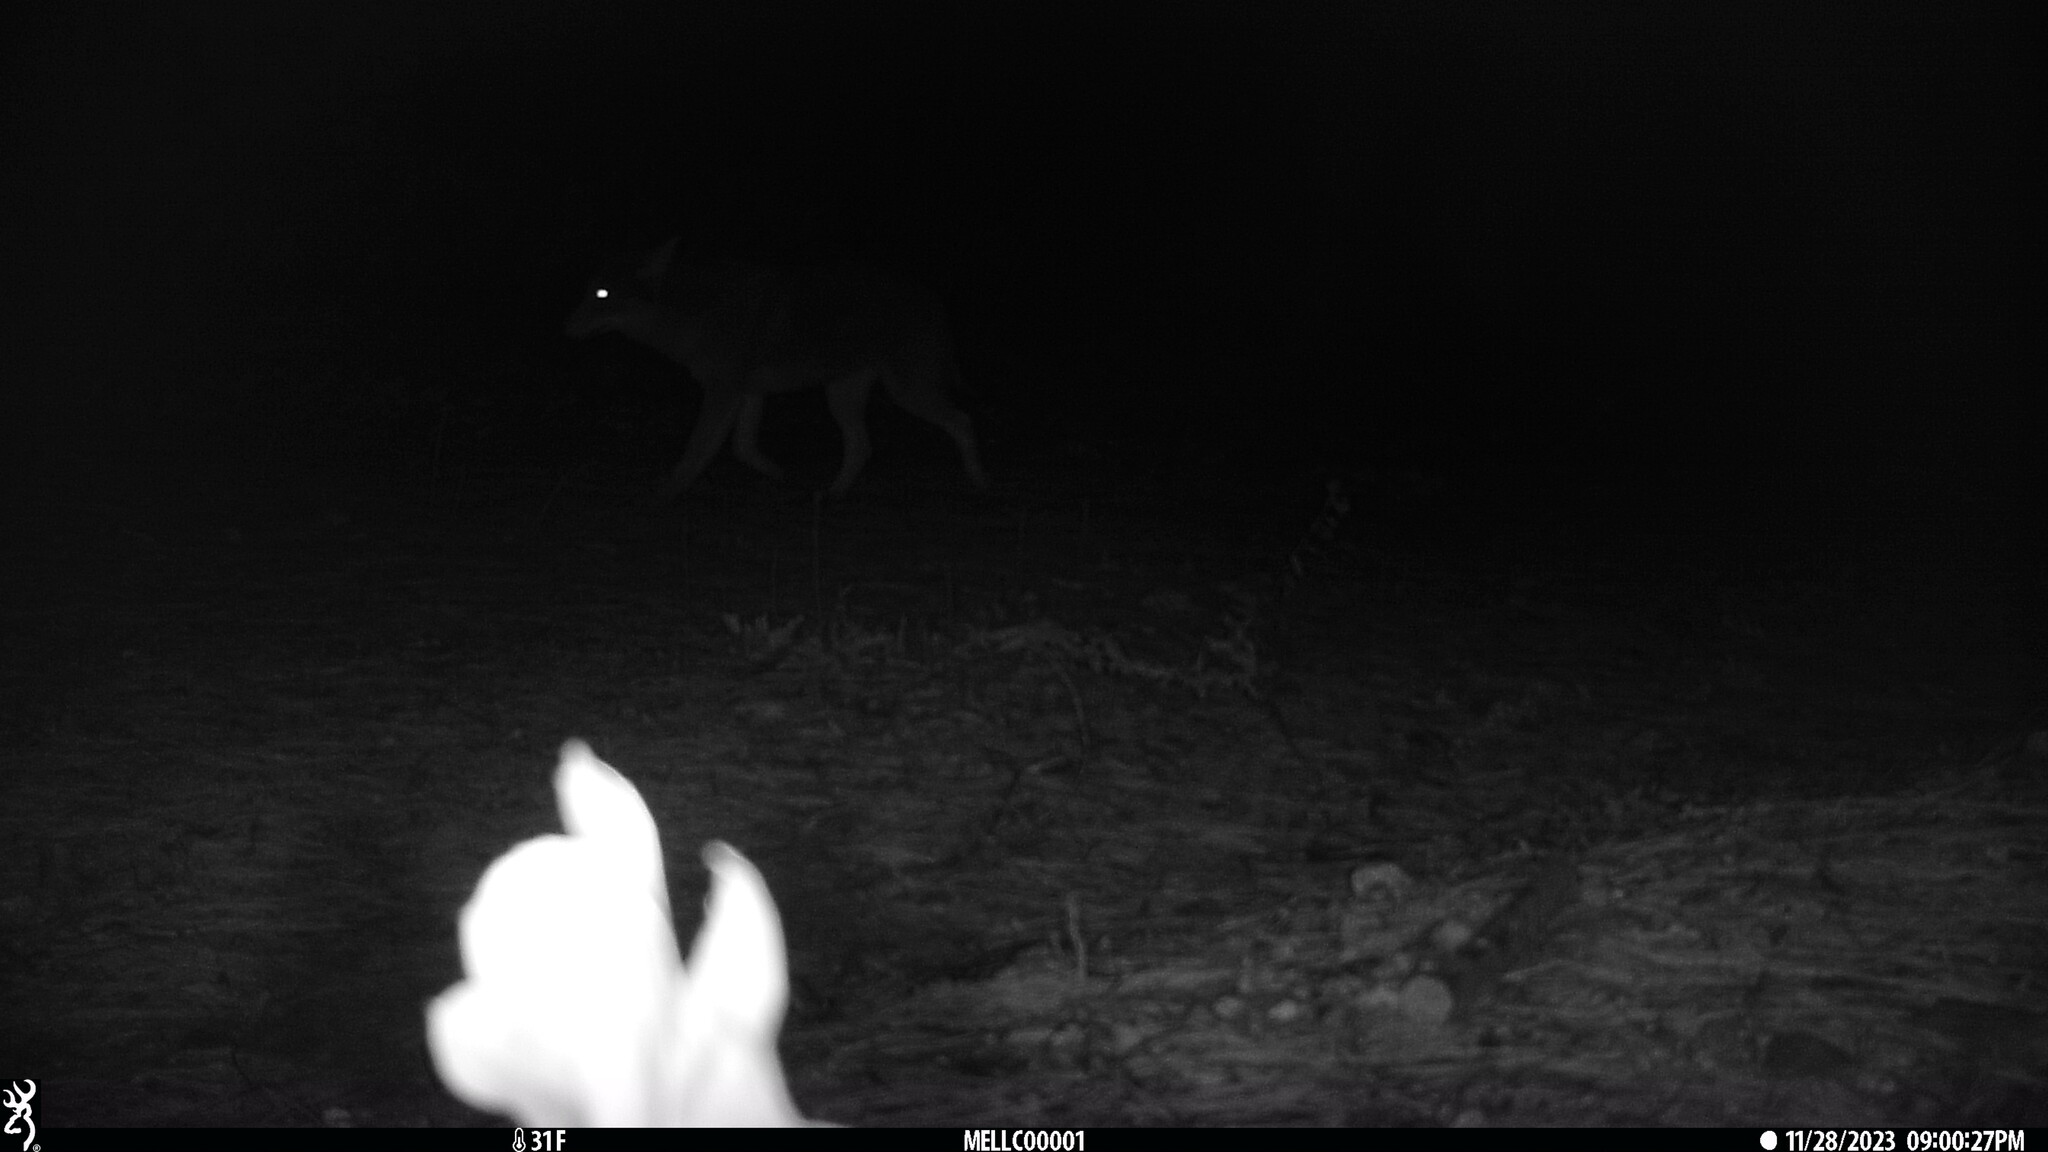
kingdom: Animalia
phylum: Chordata
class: Mammalia
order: Carnivora
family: Canidae
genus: Canis
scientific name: Canis latrans
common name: Coyote
